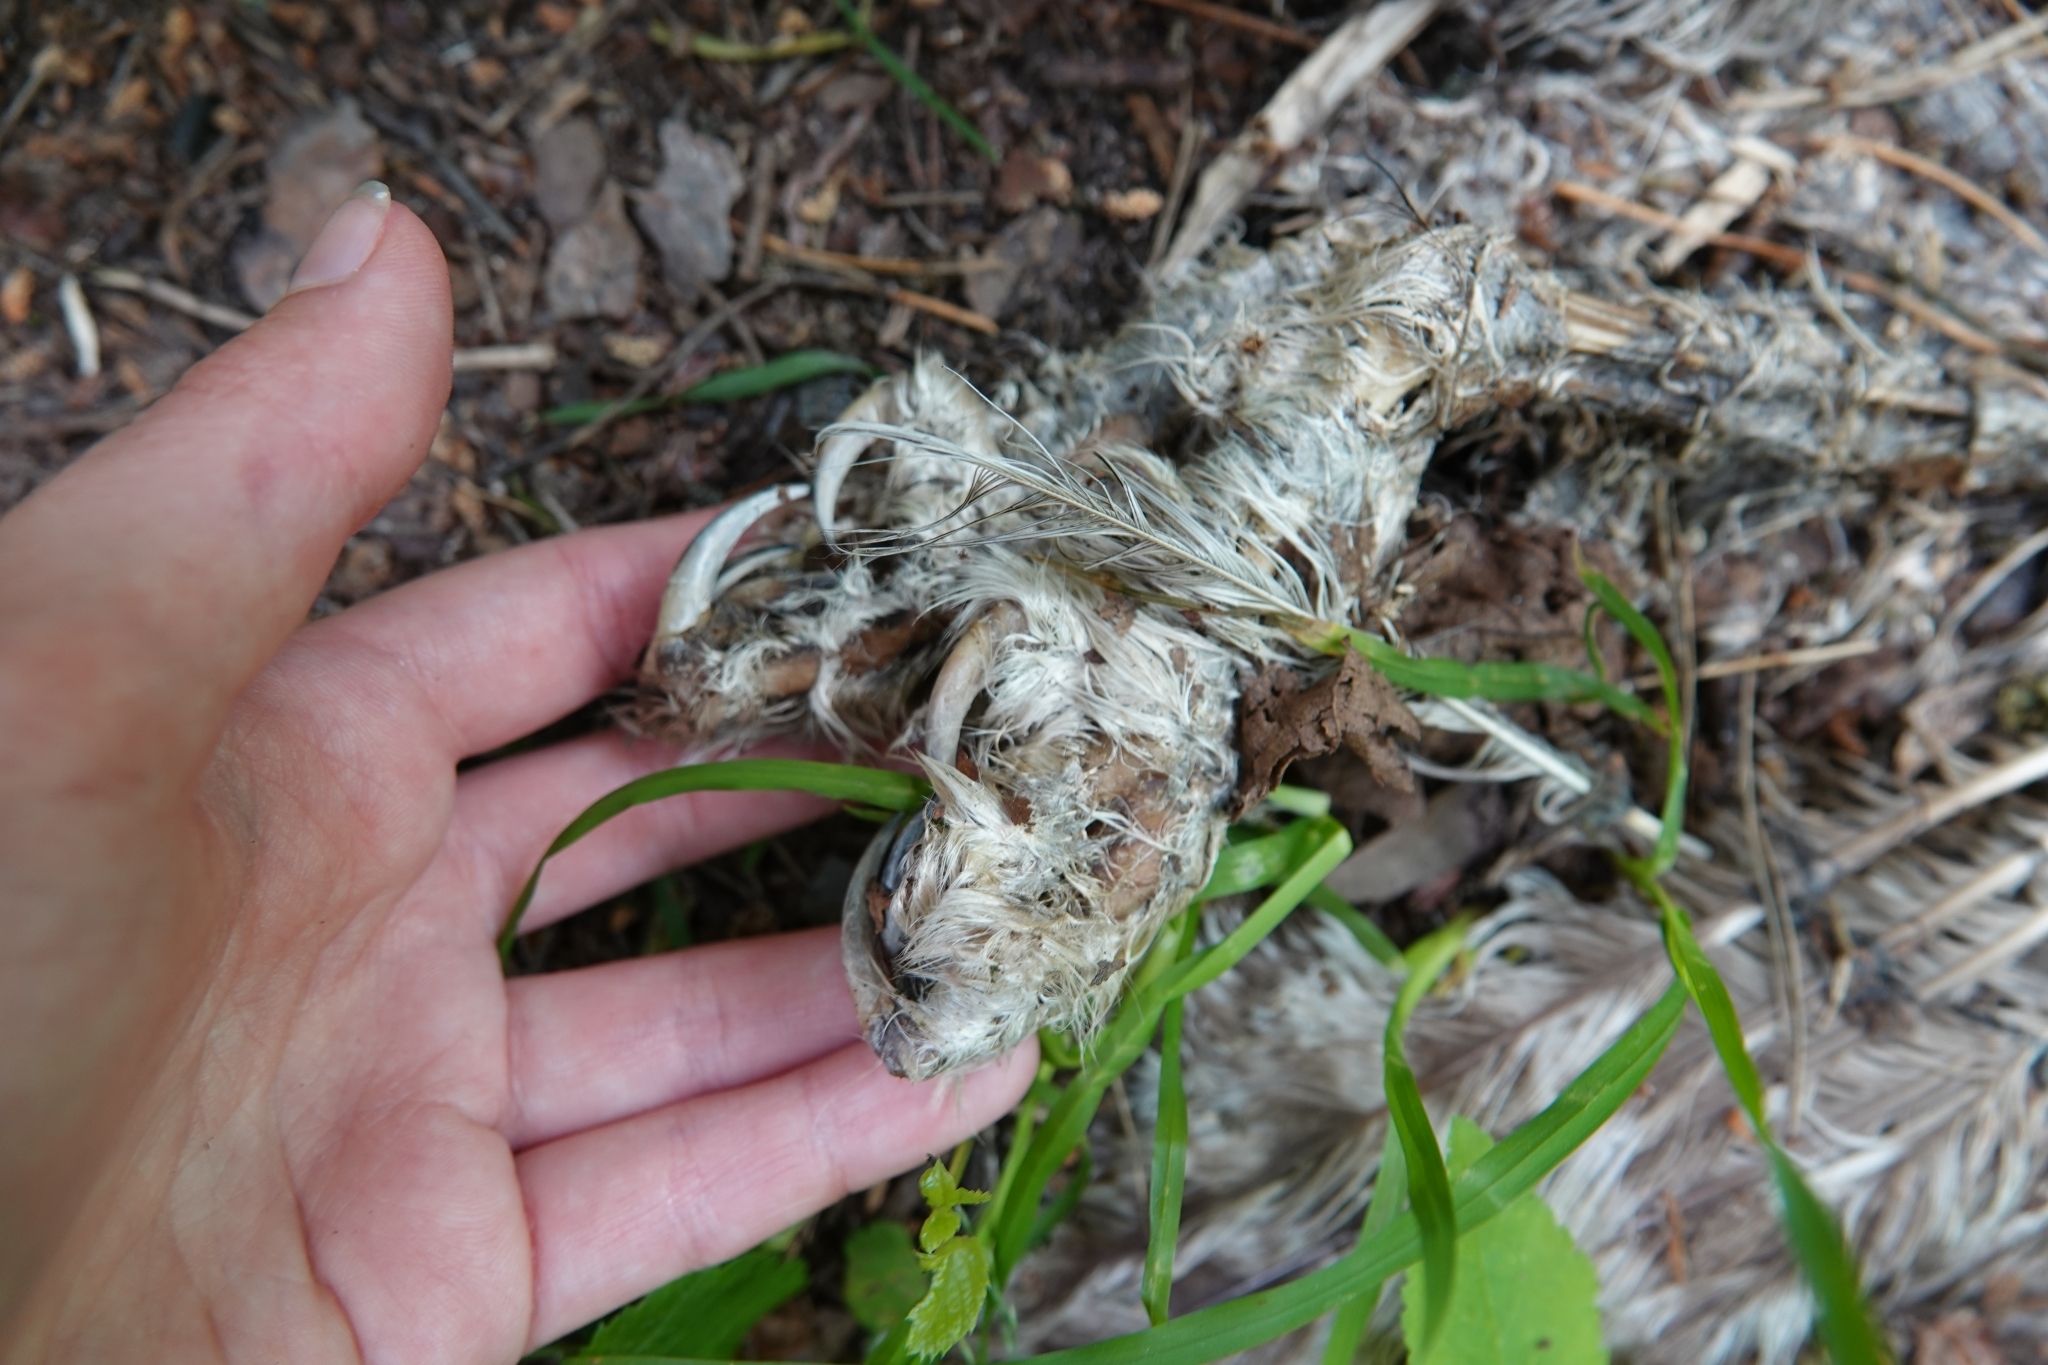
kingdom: Animalia
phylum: Chordata
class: Aves
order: Strigiformes
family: Strigidae
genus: Strix
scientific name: Strix uralensis
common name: Ural owl
